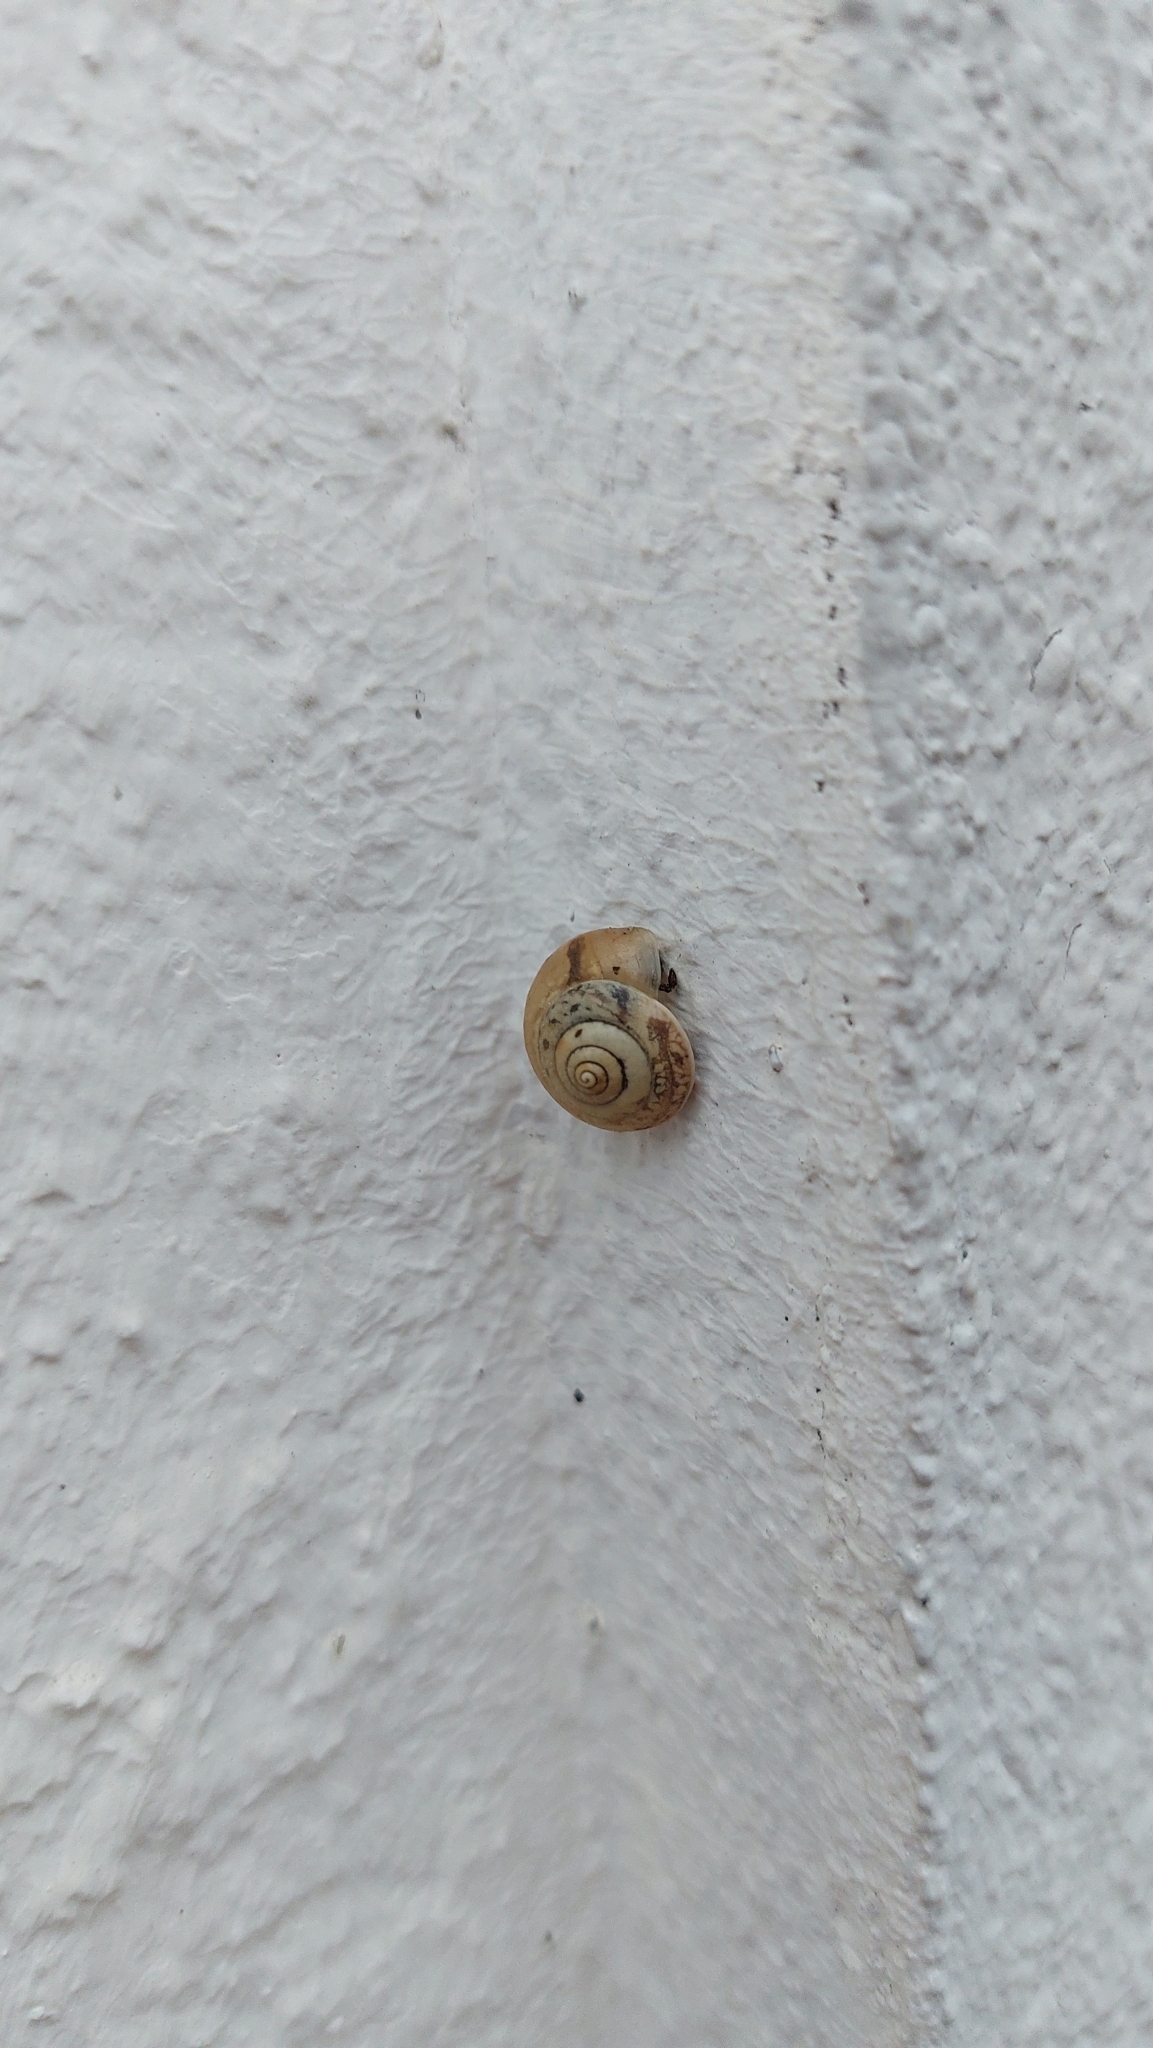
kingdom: Animalia
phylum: Mollusca
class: Gastropoda
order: Stylommatophora
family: Hygromiidae
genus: Hygromia
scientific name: Hygromia cinctella
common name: Girdled snail
